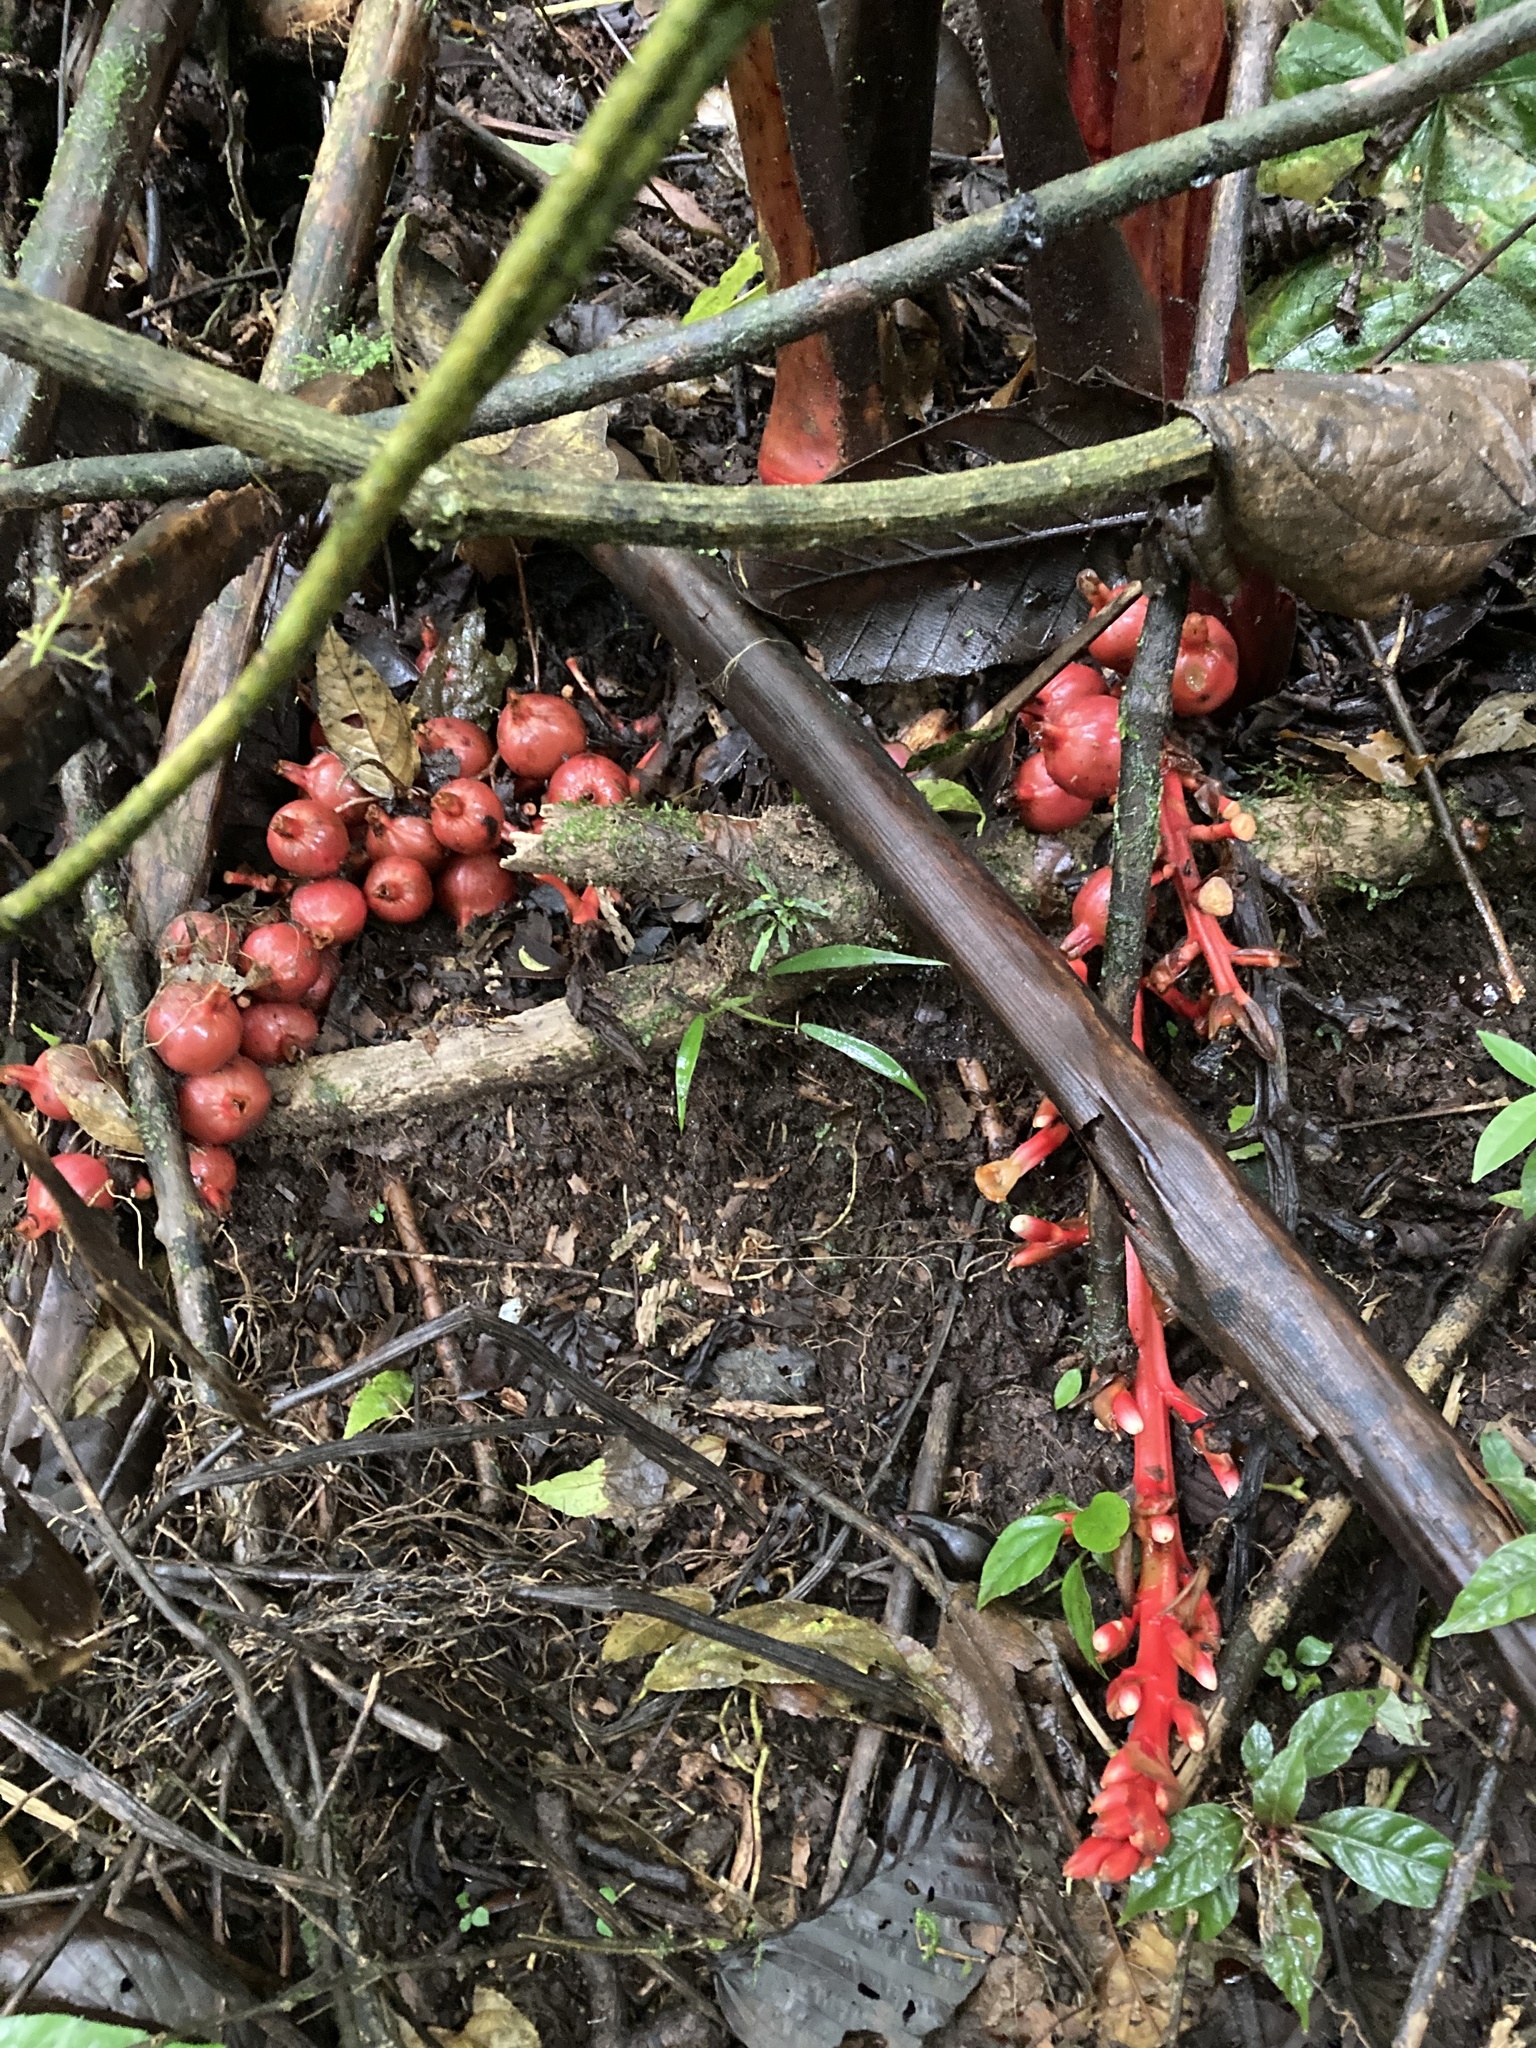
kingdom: Plantae
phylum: Tracheophyta
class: Liliopsida
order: Zingiberales
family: Zingiberaceae
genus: Renealmia
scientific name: Renealmia ligulata
